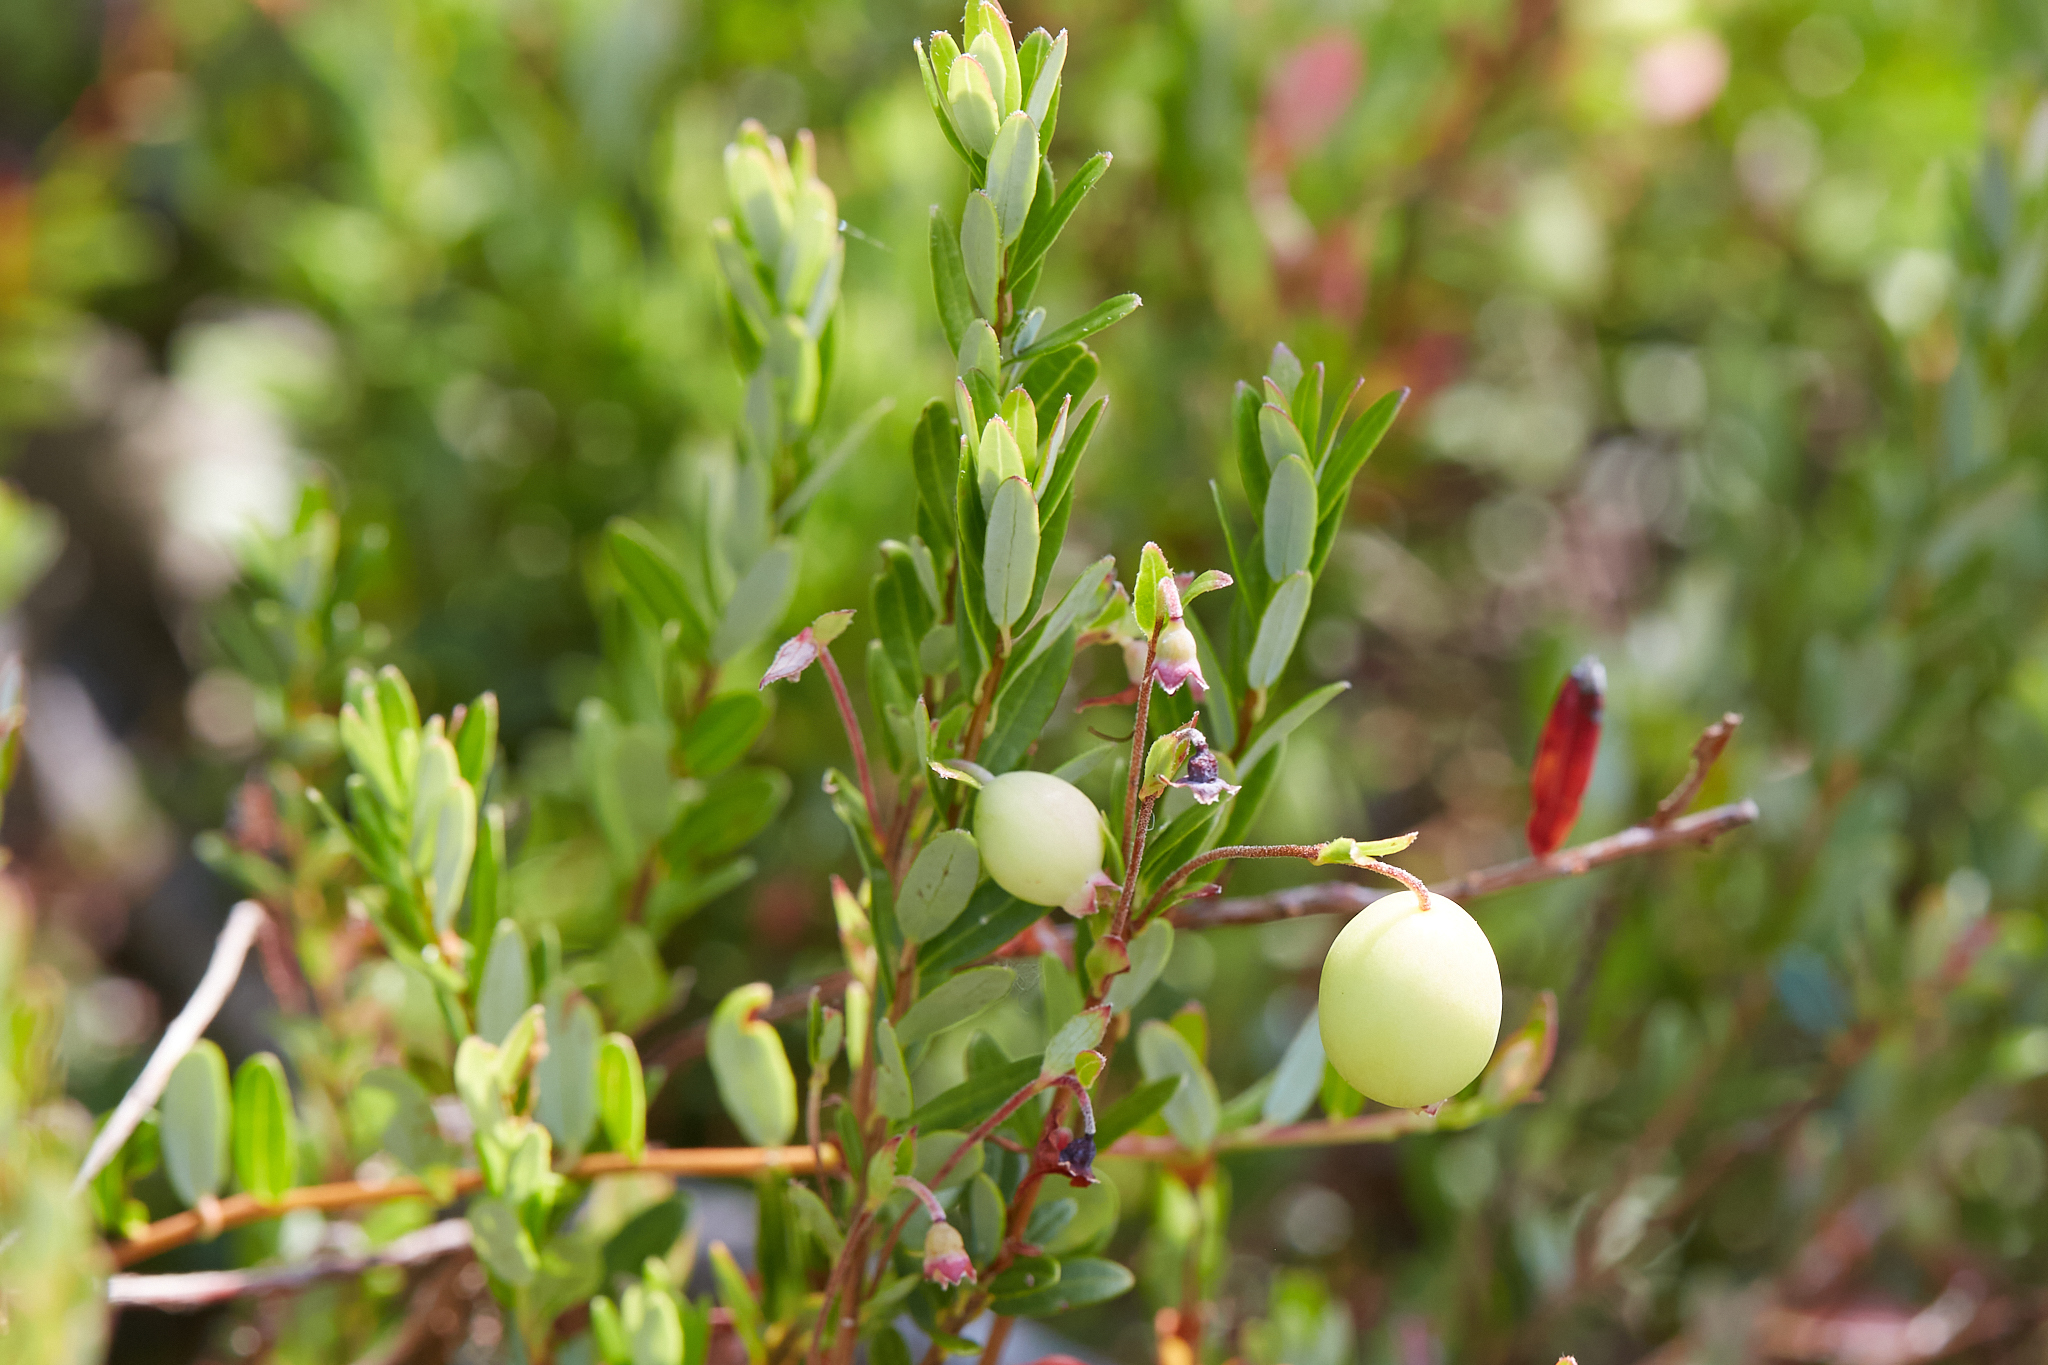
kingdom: Plantae
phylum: Tracheophyta
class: Magnoliopsida
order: Ericales
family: Ericaceae
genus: Vaccinium
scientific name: Vaccinium macrocarpon
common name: American cranberry
